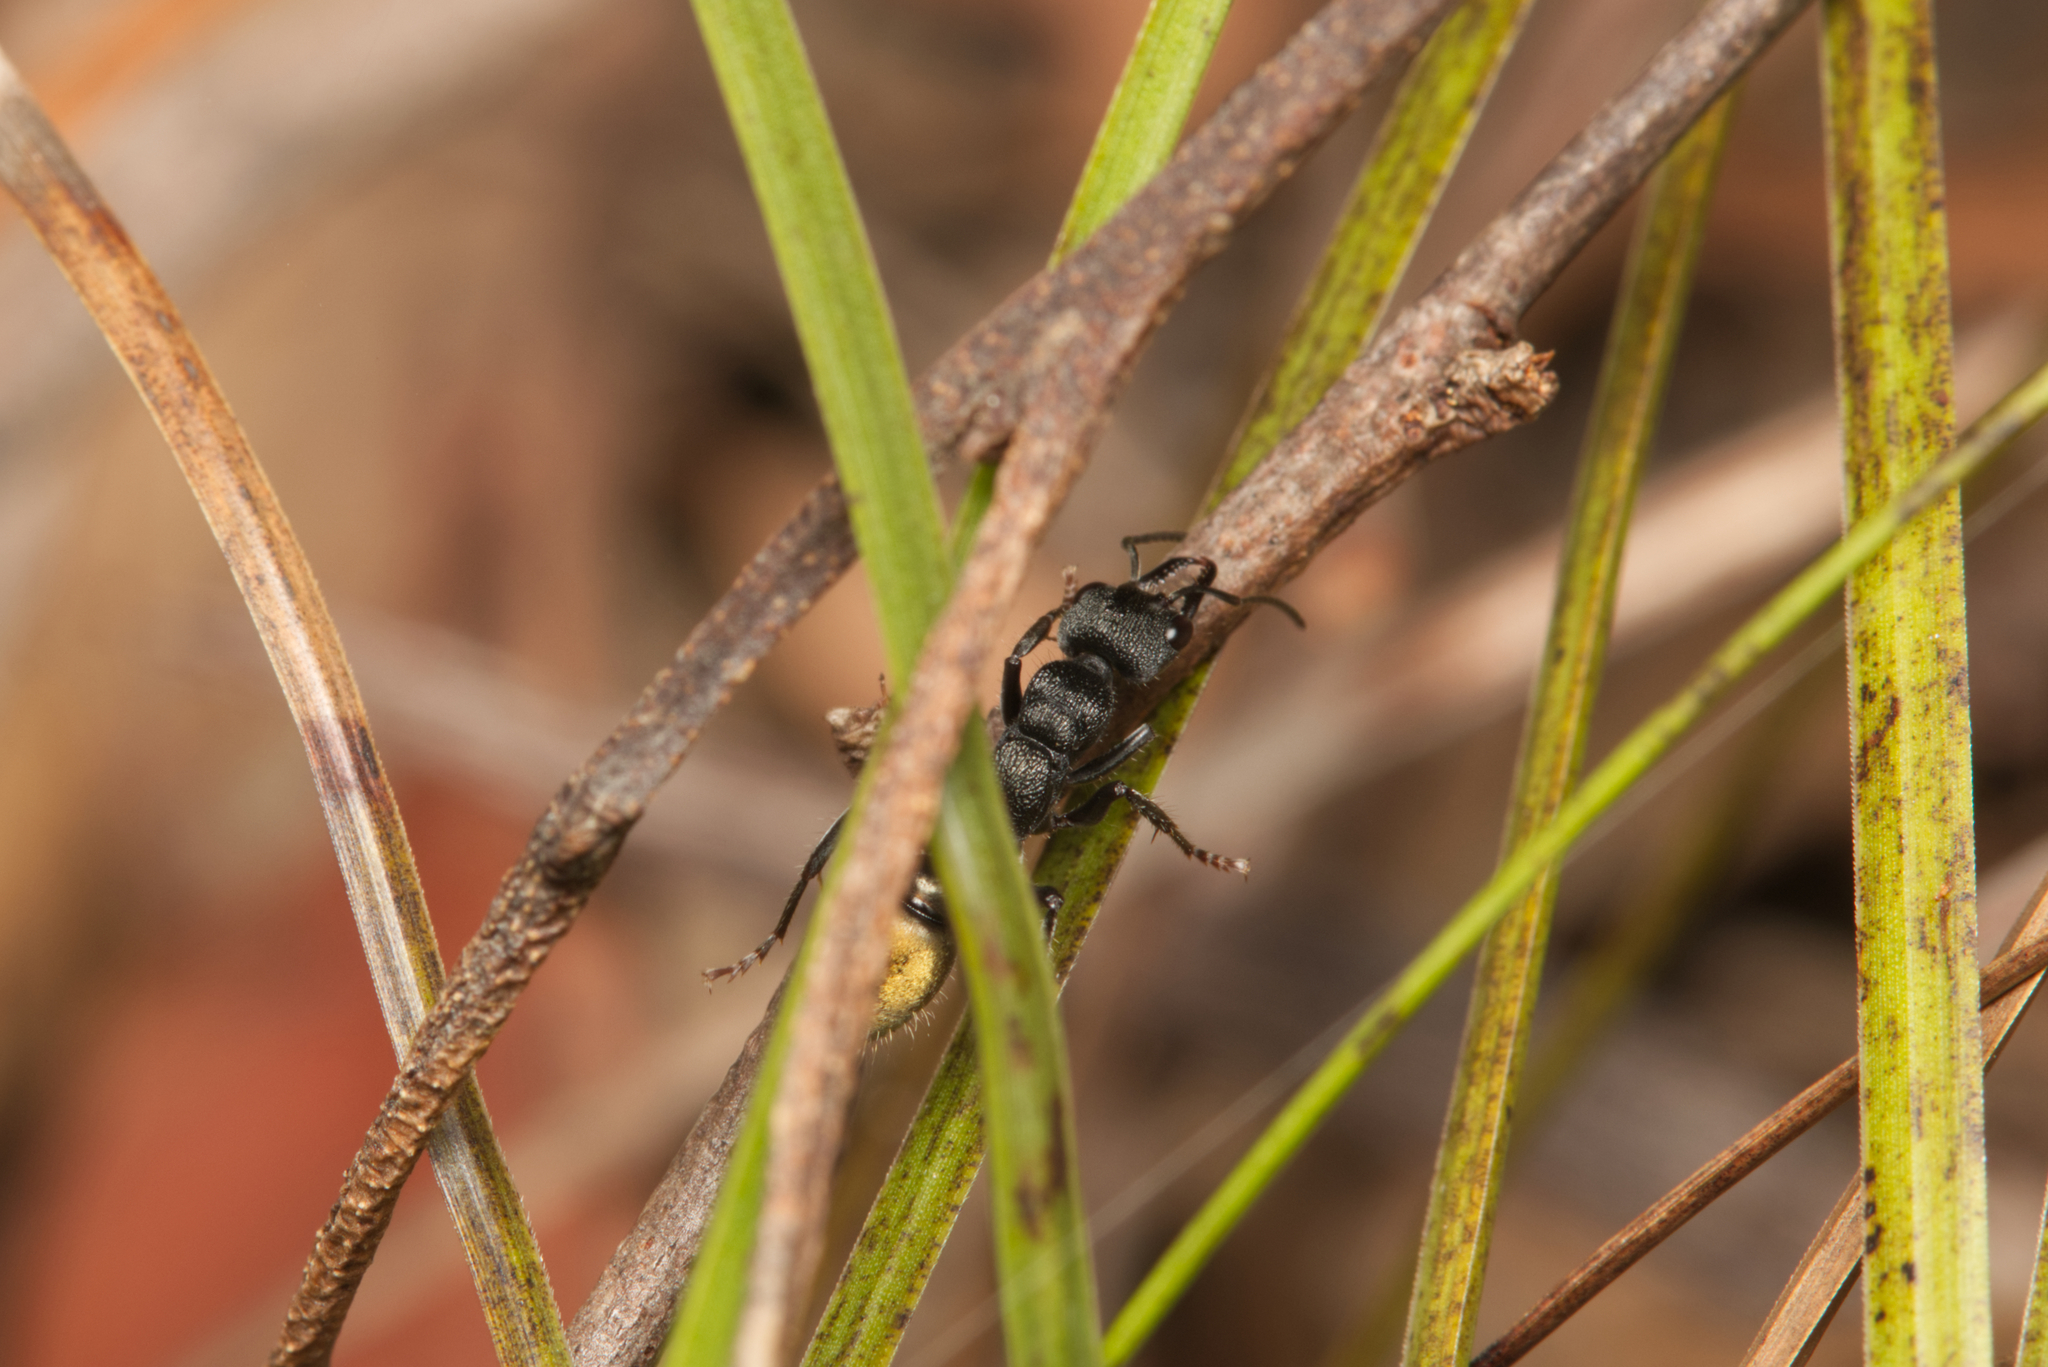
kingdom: Animalia
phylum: Arthropoda
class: Insecta
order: Hymenoptera
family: Formicidae
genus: Myrmecia
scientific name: Myrmecia queenslandica
